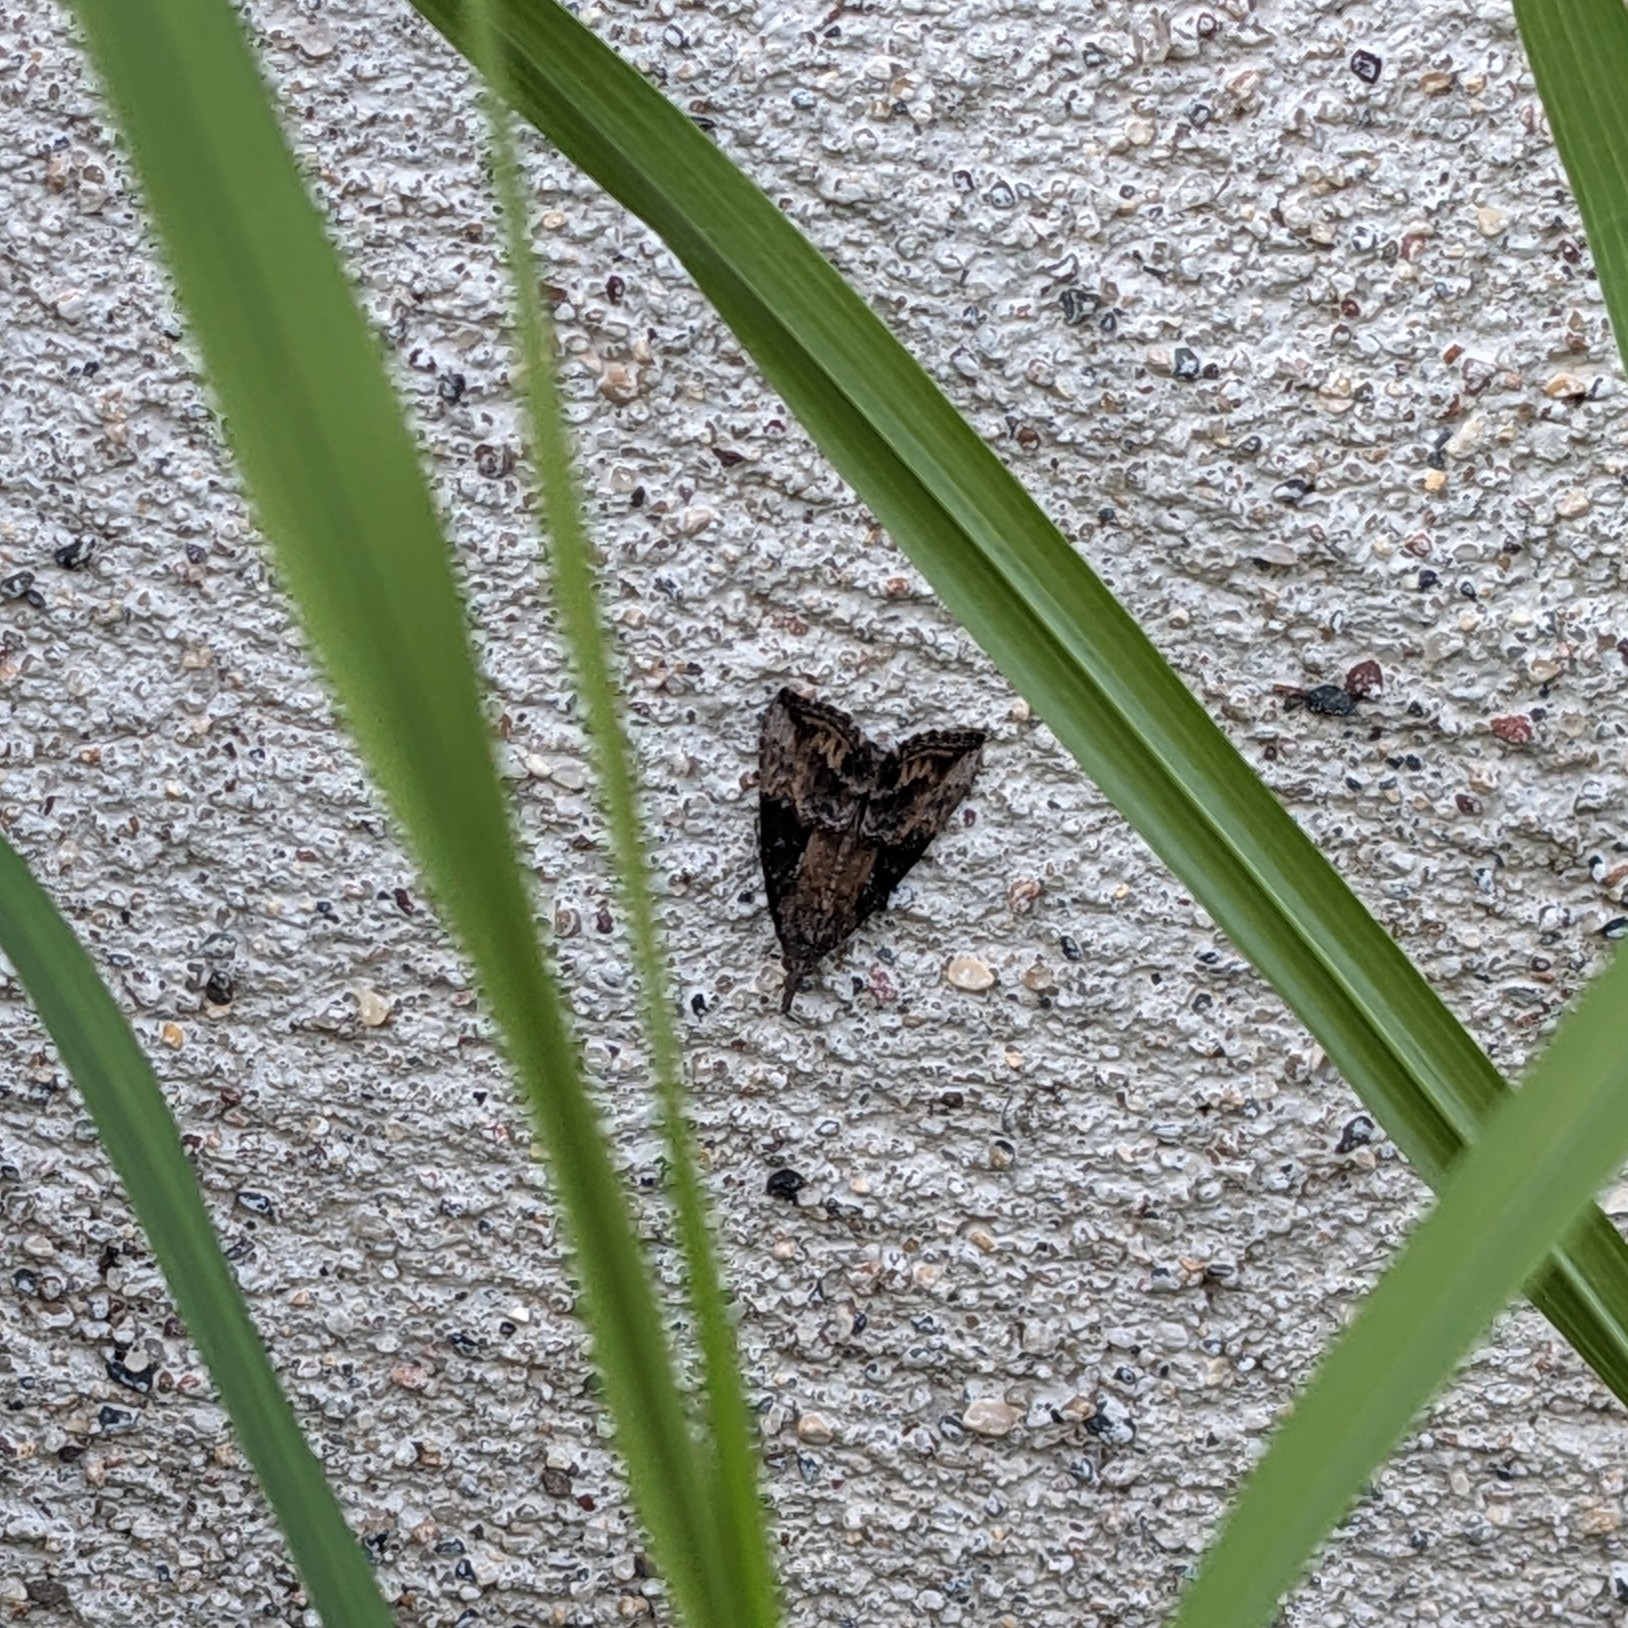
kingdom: Animalia
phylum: Arthropoda
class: Insecta
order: Lepidoptera
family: Erebidae
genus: Hypena
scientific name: Hypena scabra
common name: Green cloverworm
